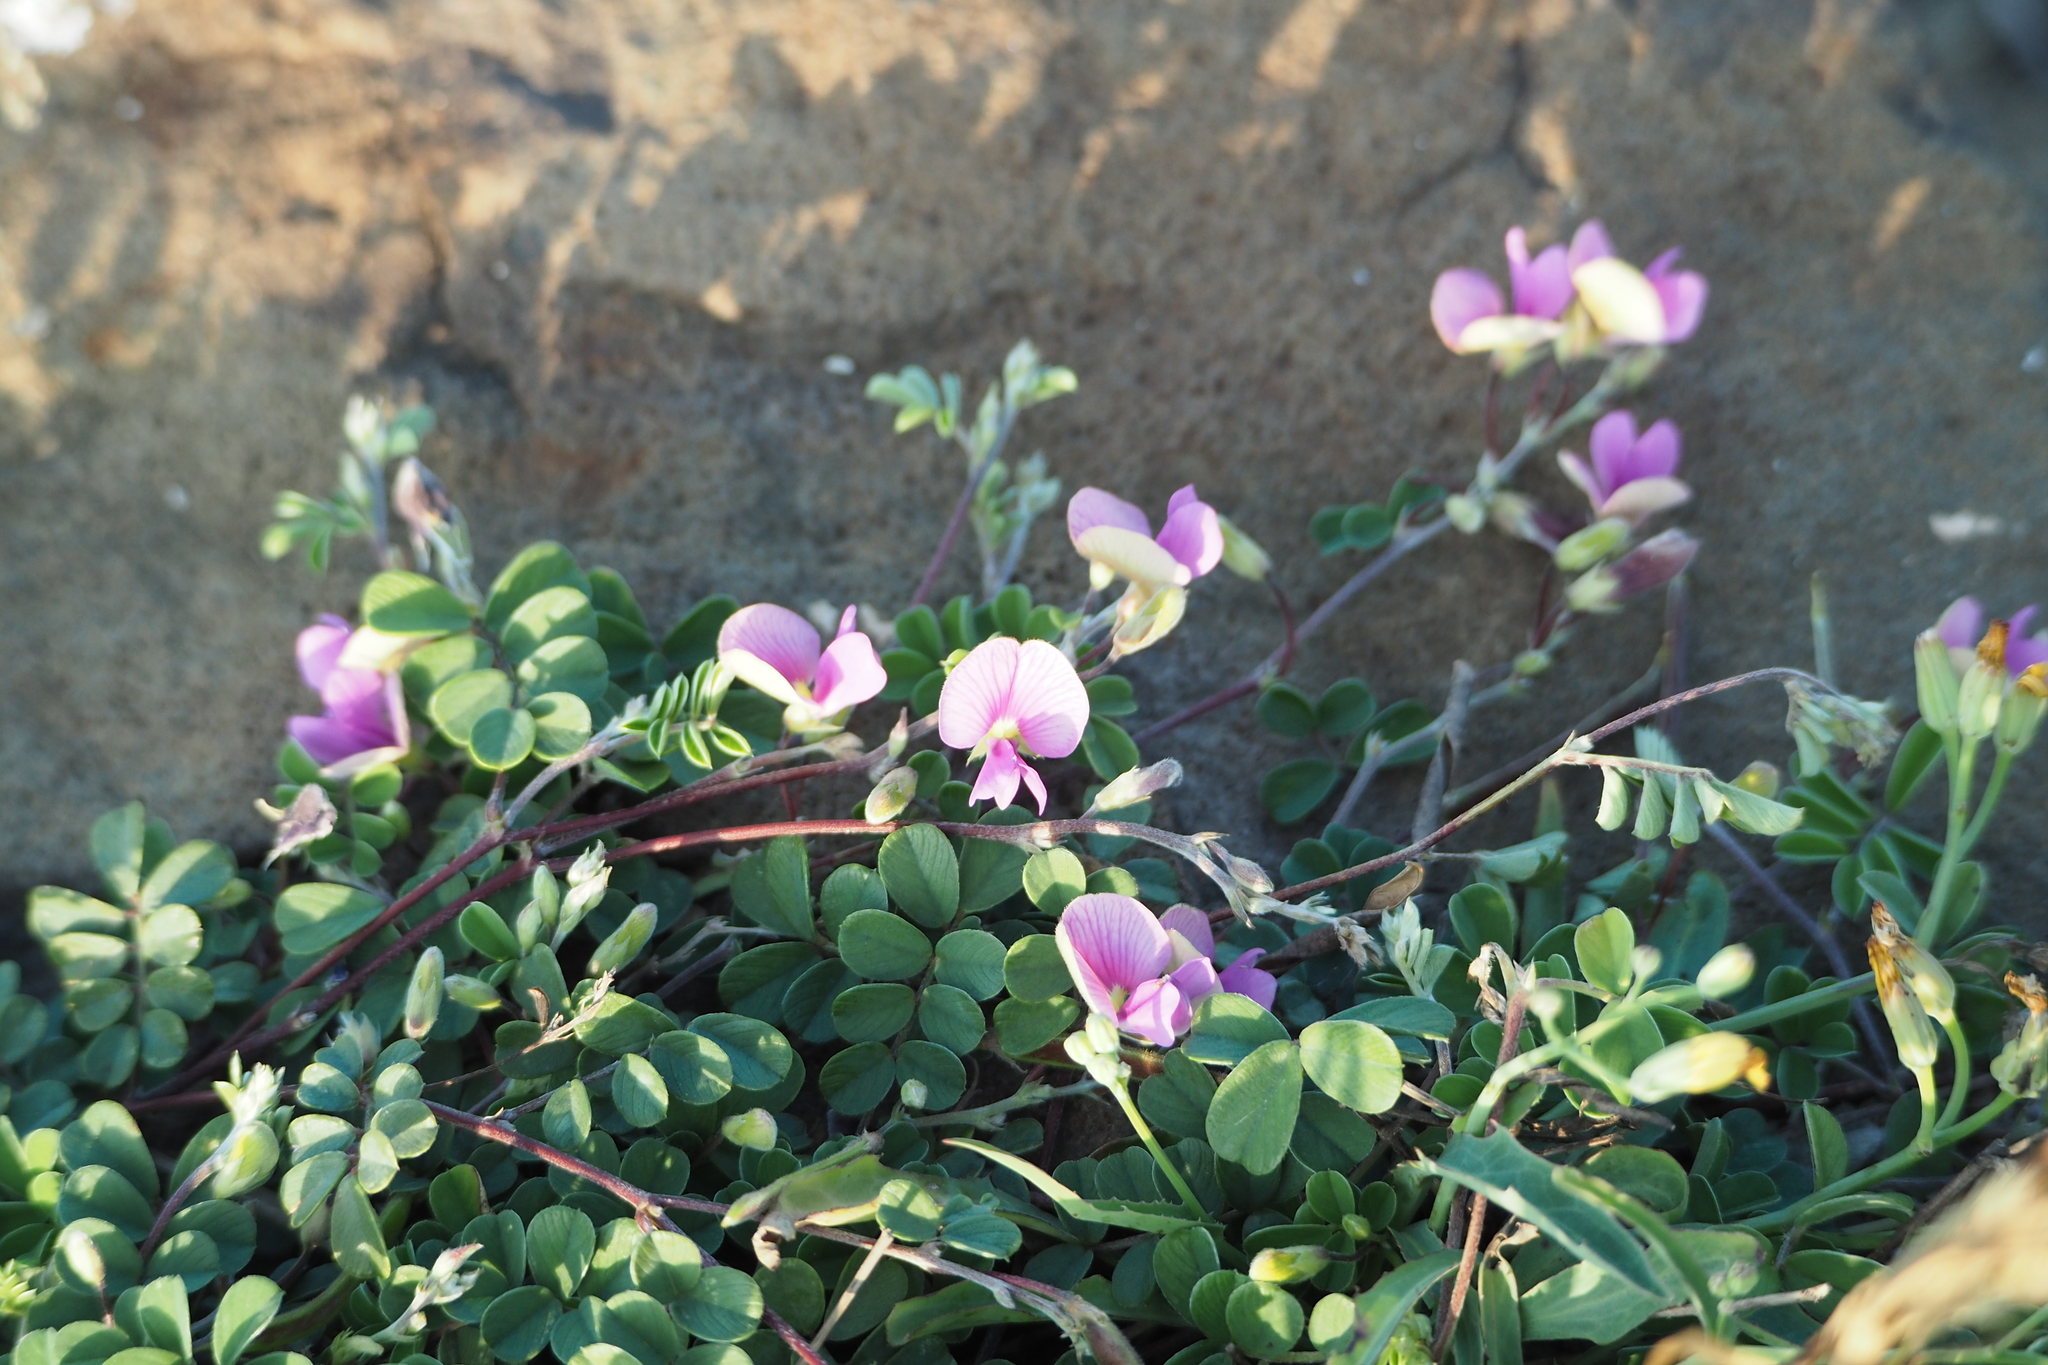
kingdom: Plantae
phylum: Tracheophyta
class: Magnoliopsida
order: Fabales
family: Fabaceae
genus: Tephrosia
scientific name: Tephrosia obovata
